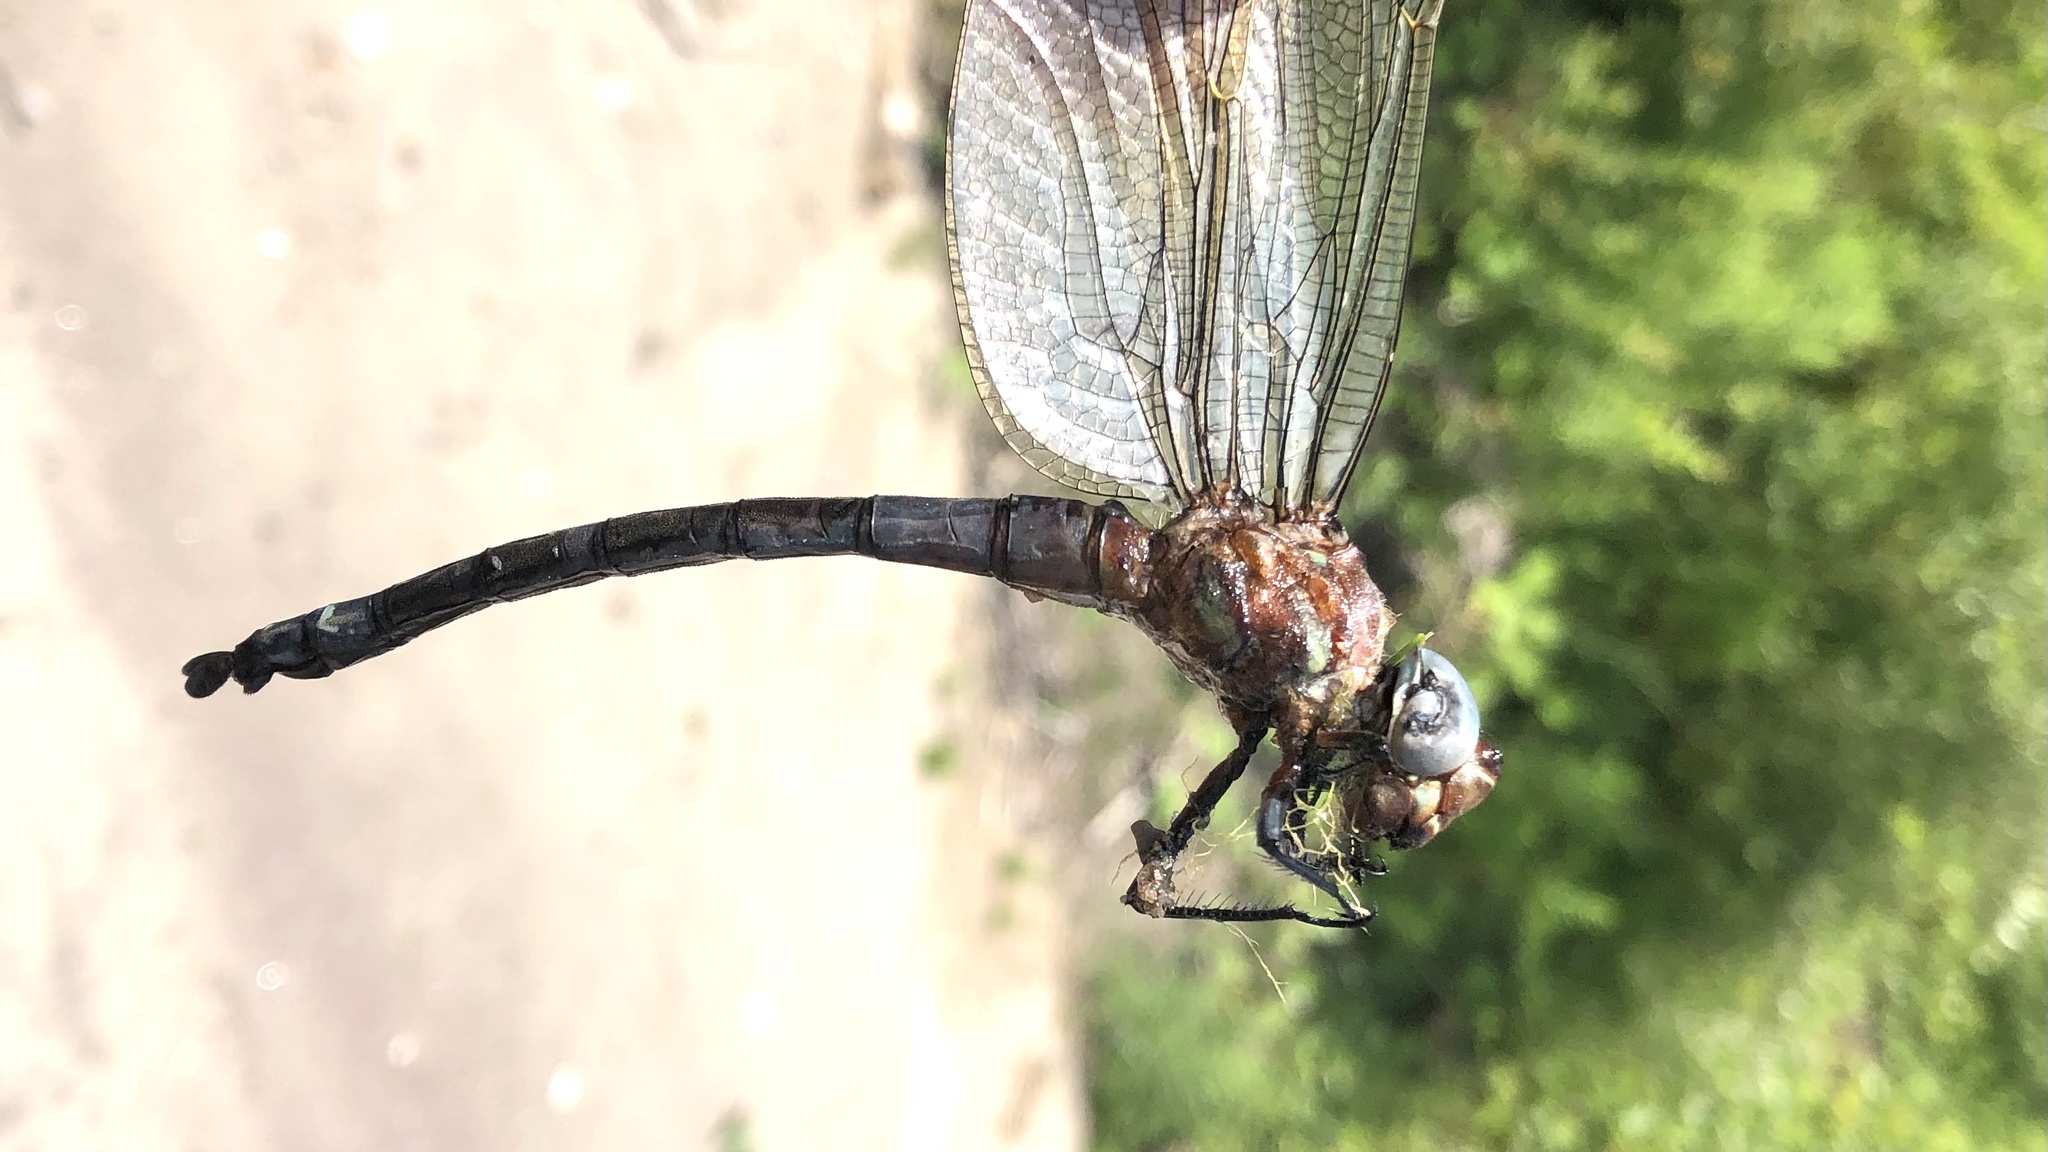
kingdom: Animalia
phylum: Arthropoda
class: Insecta
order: Odonata
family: Aeshnidae
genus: Epiaeschna
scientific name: Epiaeschna heros
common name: Swamp darner
